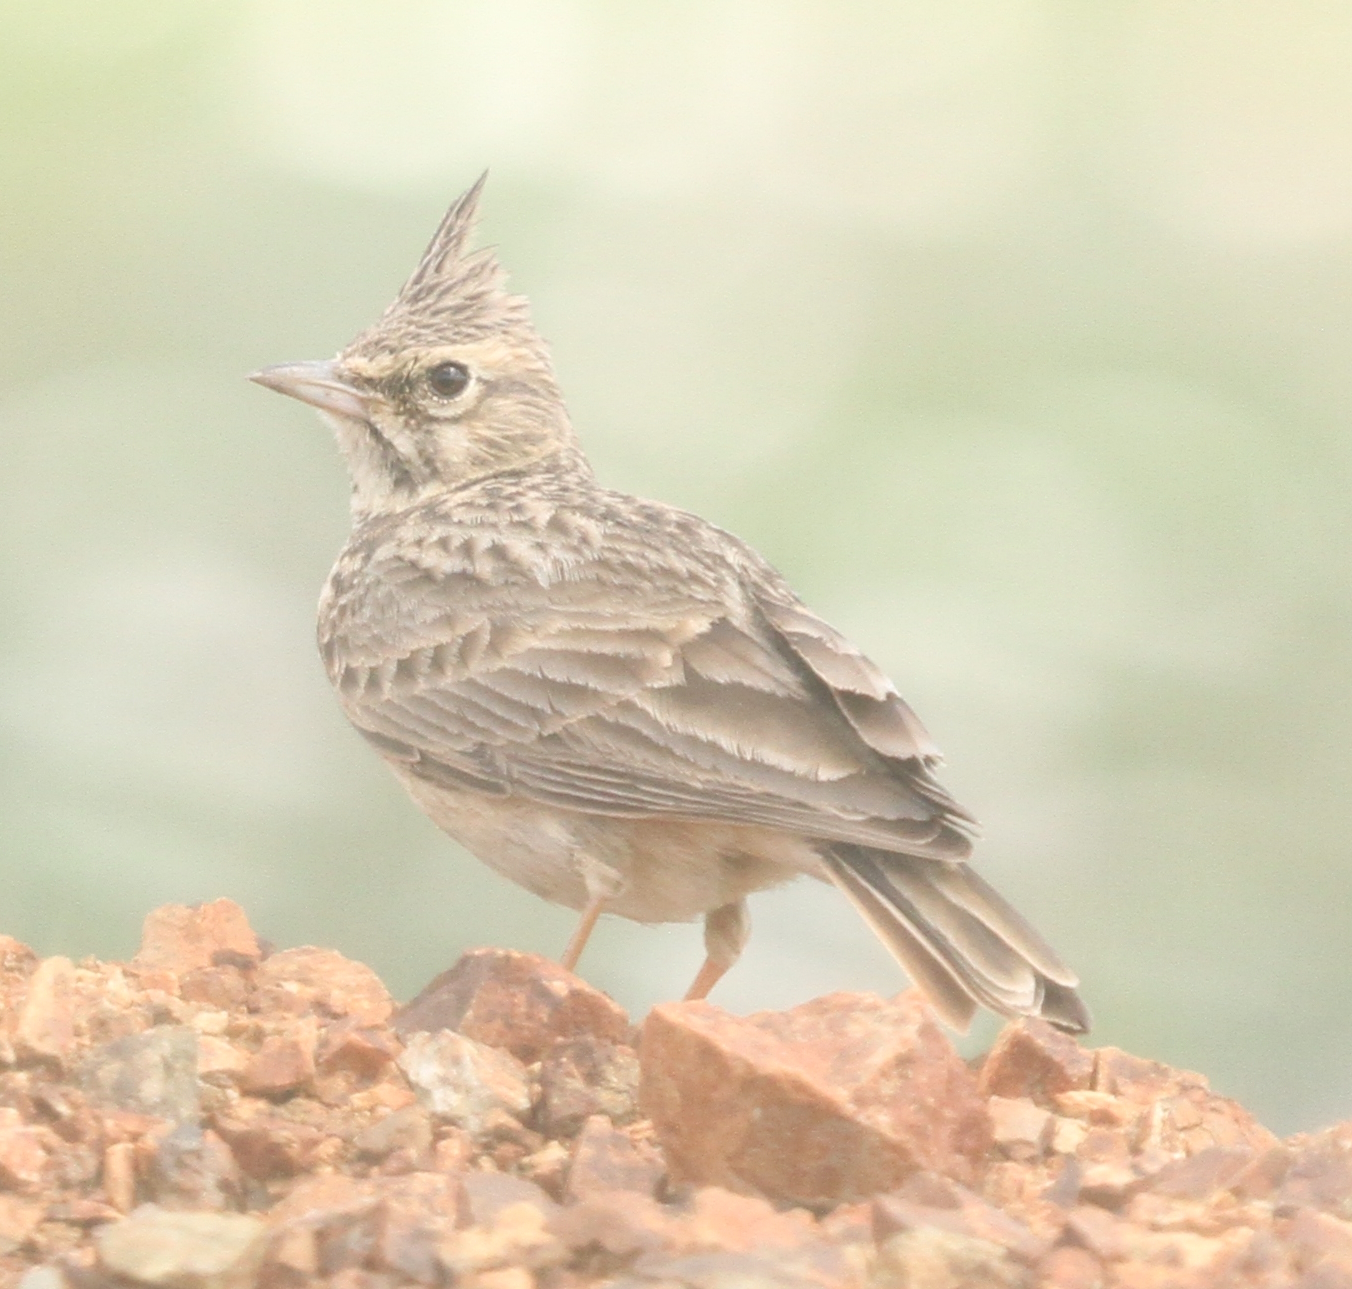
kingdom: Animalia
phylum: Chordata
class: Aves
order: Passeriformes
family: Alaudidae
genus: Galerida
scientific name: Galerida theklae
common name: Thekla lark
